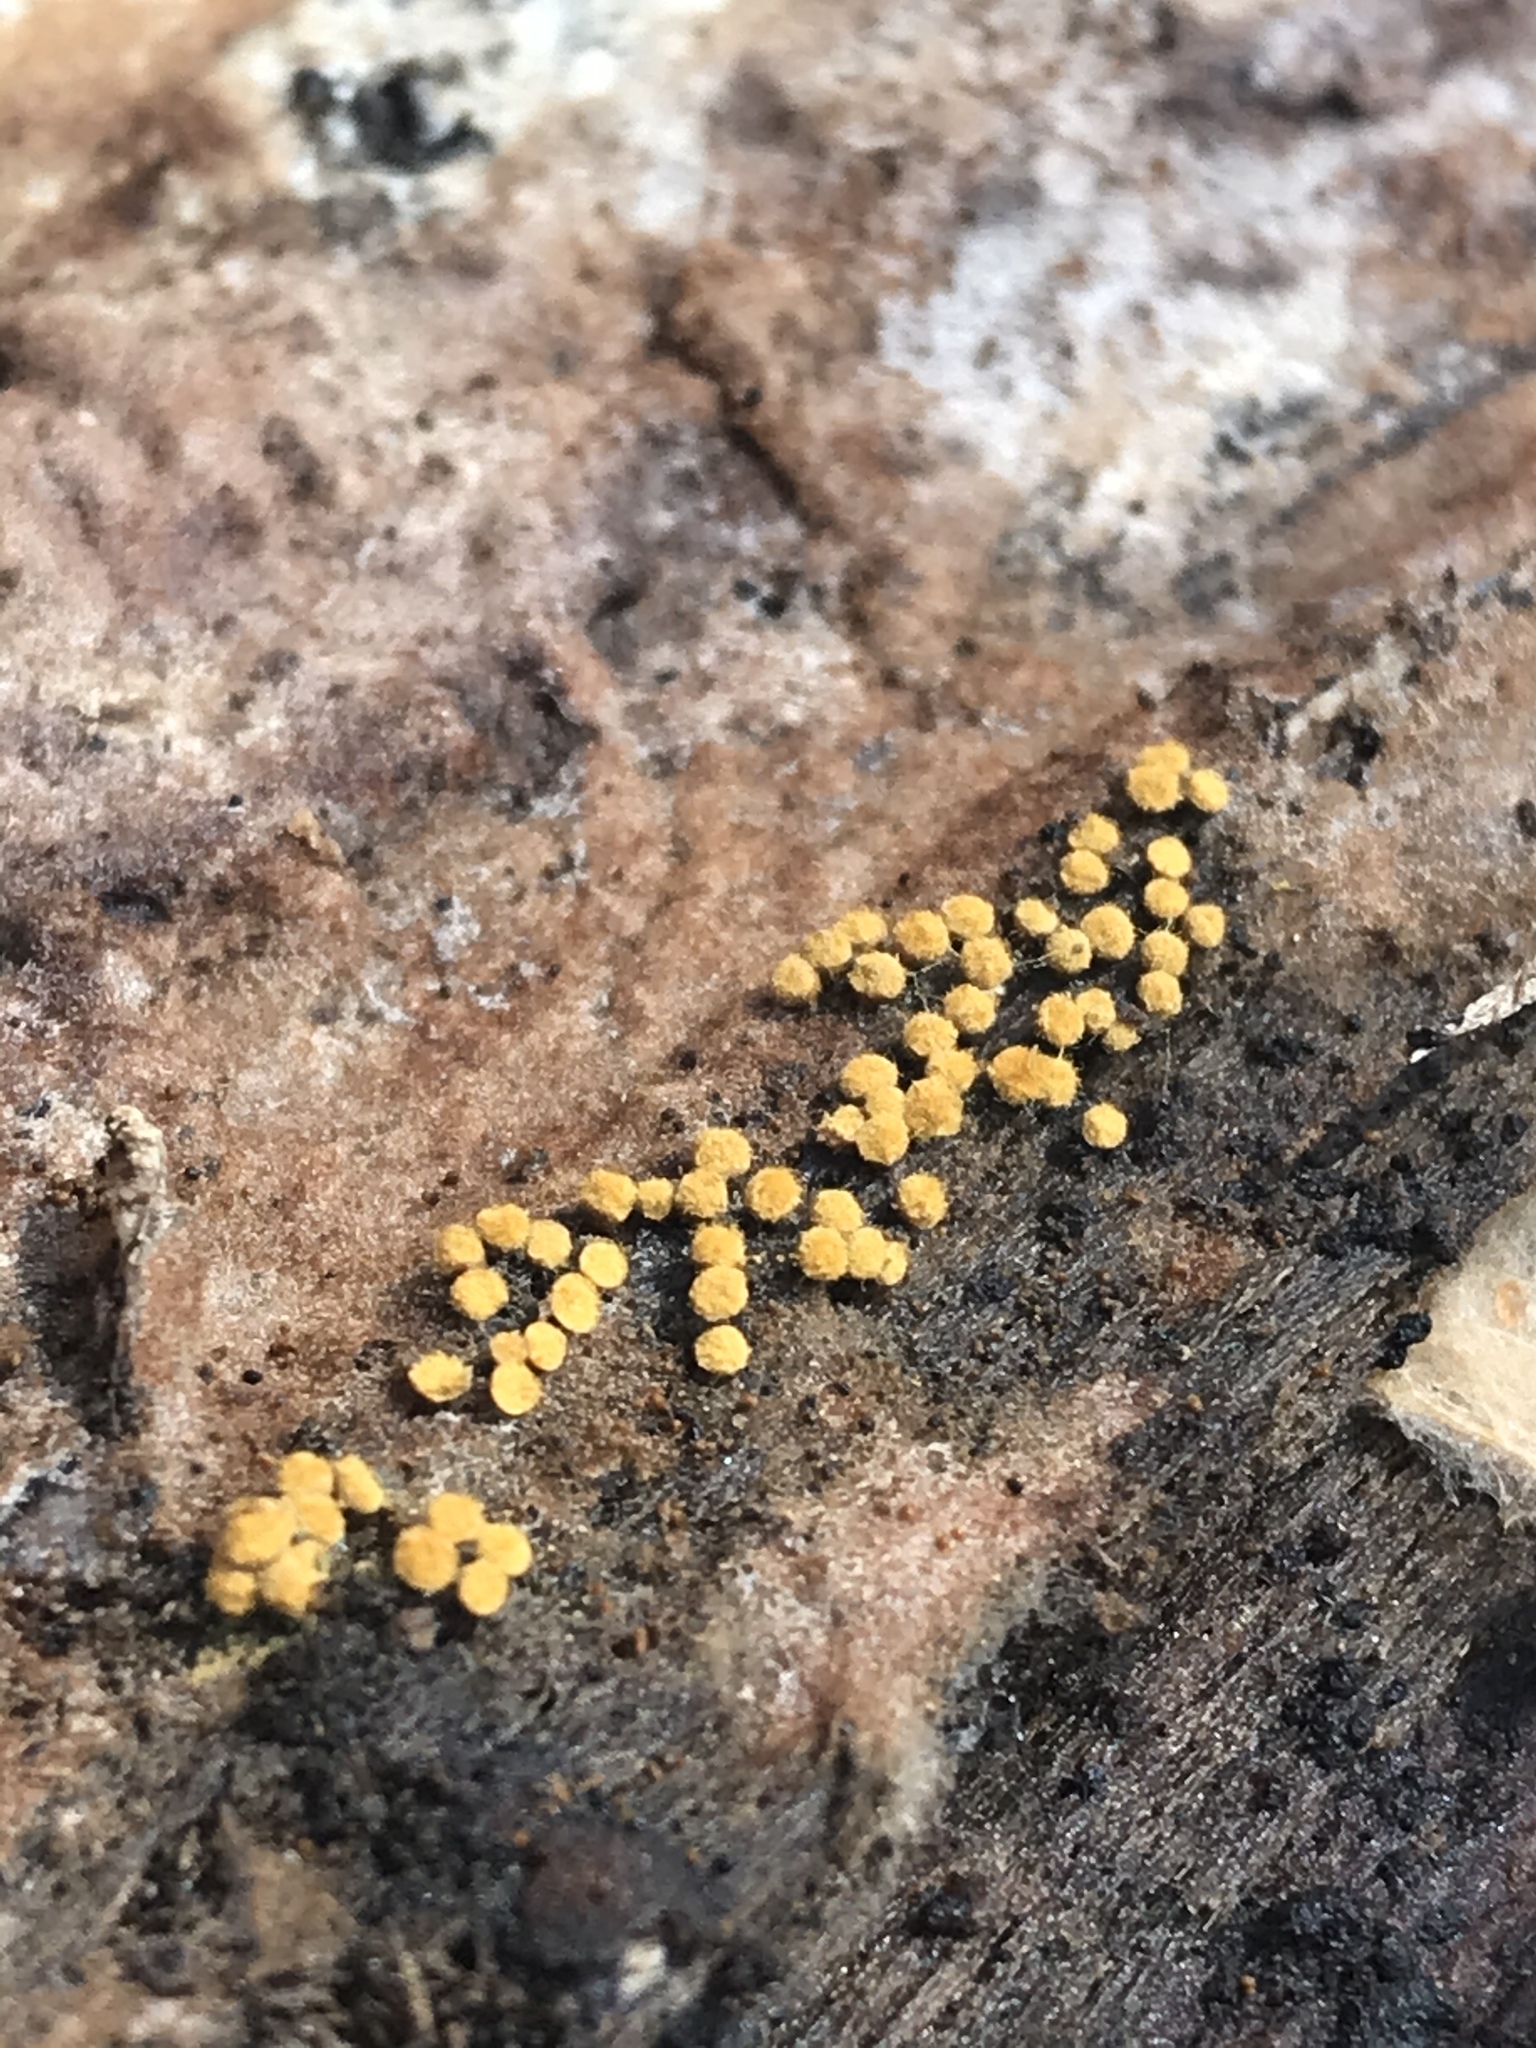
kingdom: Protozoa
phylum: Mycetozoa
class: Myxomycetes
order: Trichiales
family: Arcyriaceae
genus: Hemitrichia
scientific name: Hemitrichia calyculata
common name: Push pin slime mold
